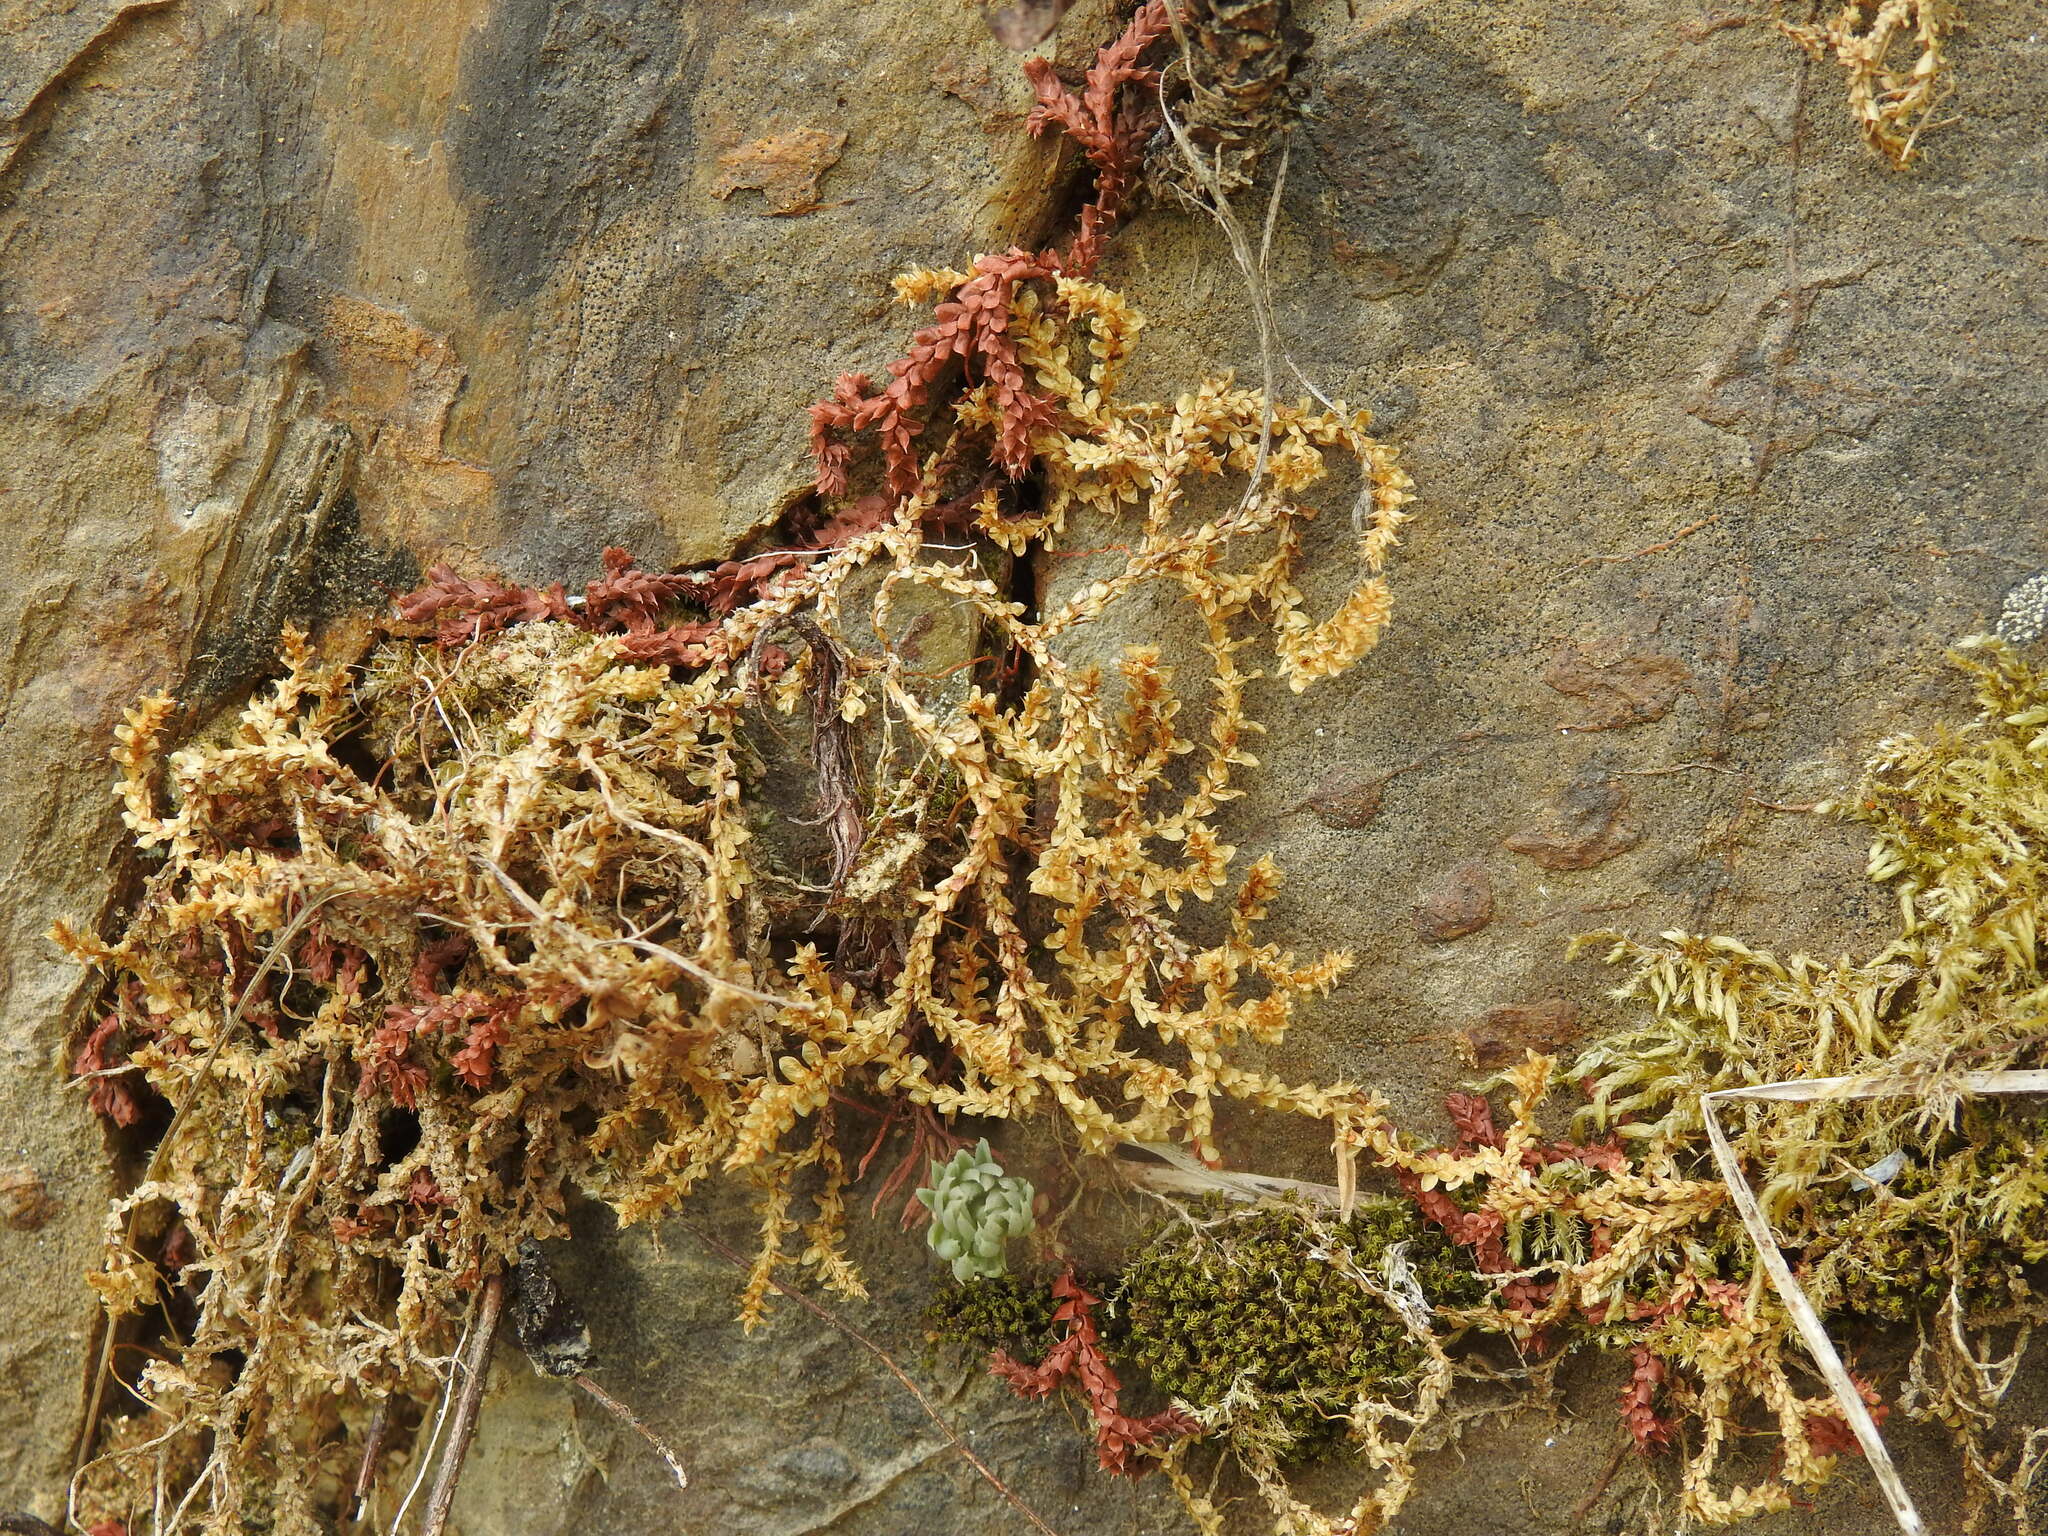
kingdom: Plantae
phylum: Tracheophyta
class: Lycopodiopsida
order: Selaginellales
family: Selaginellaceae
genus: Selaginella
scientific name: Selaginella denticulata
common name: Toothed-leaved clubmoss
